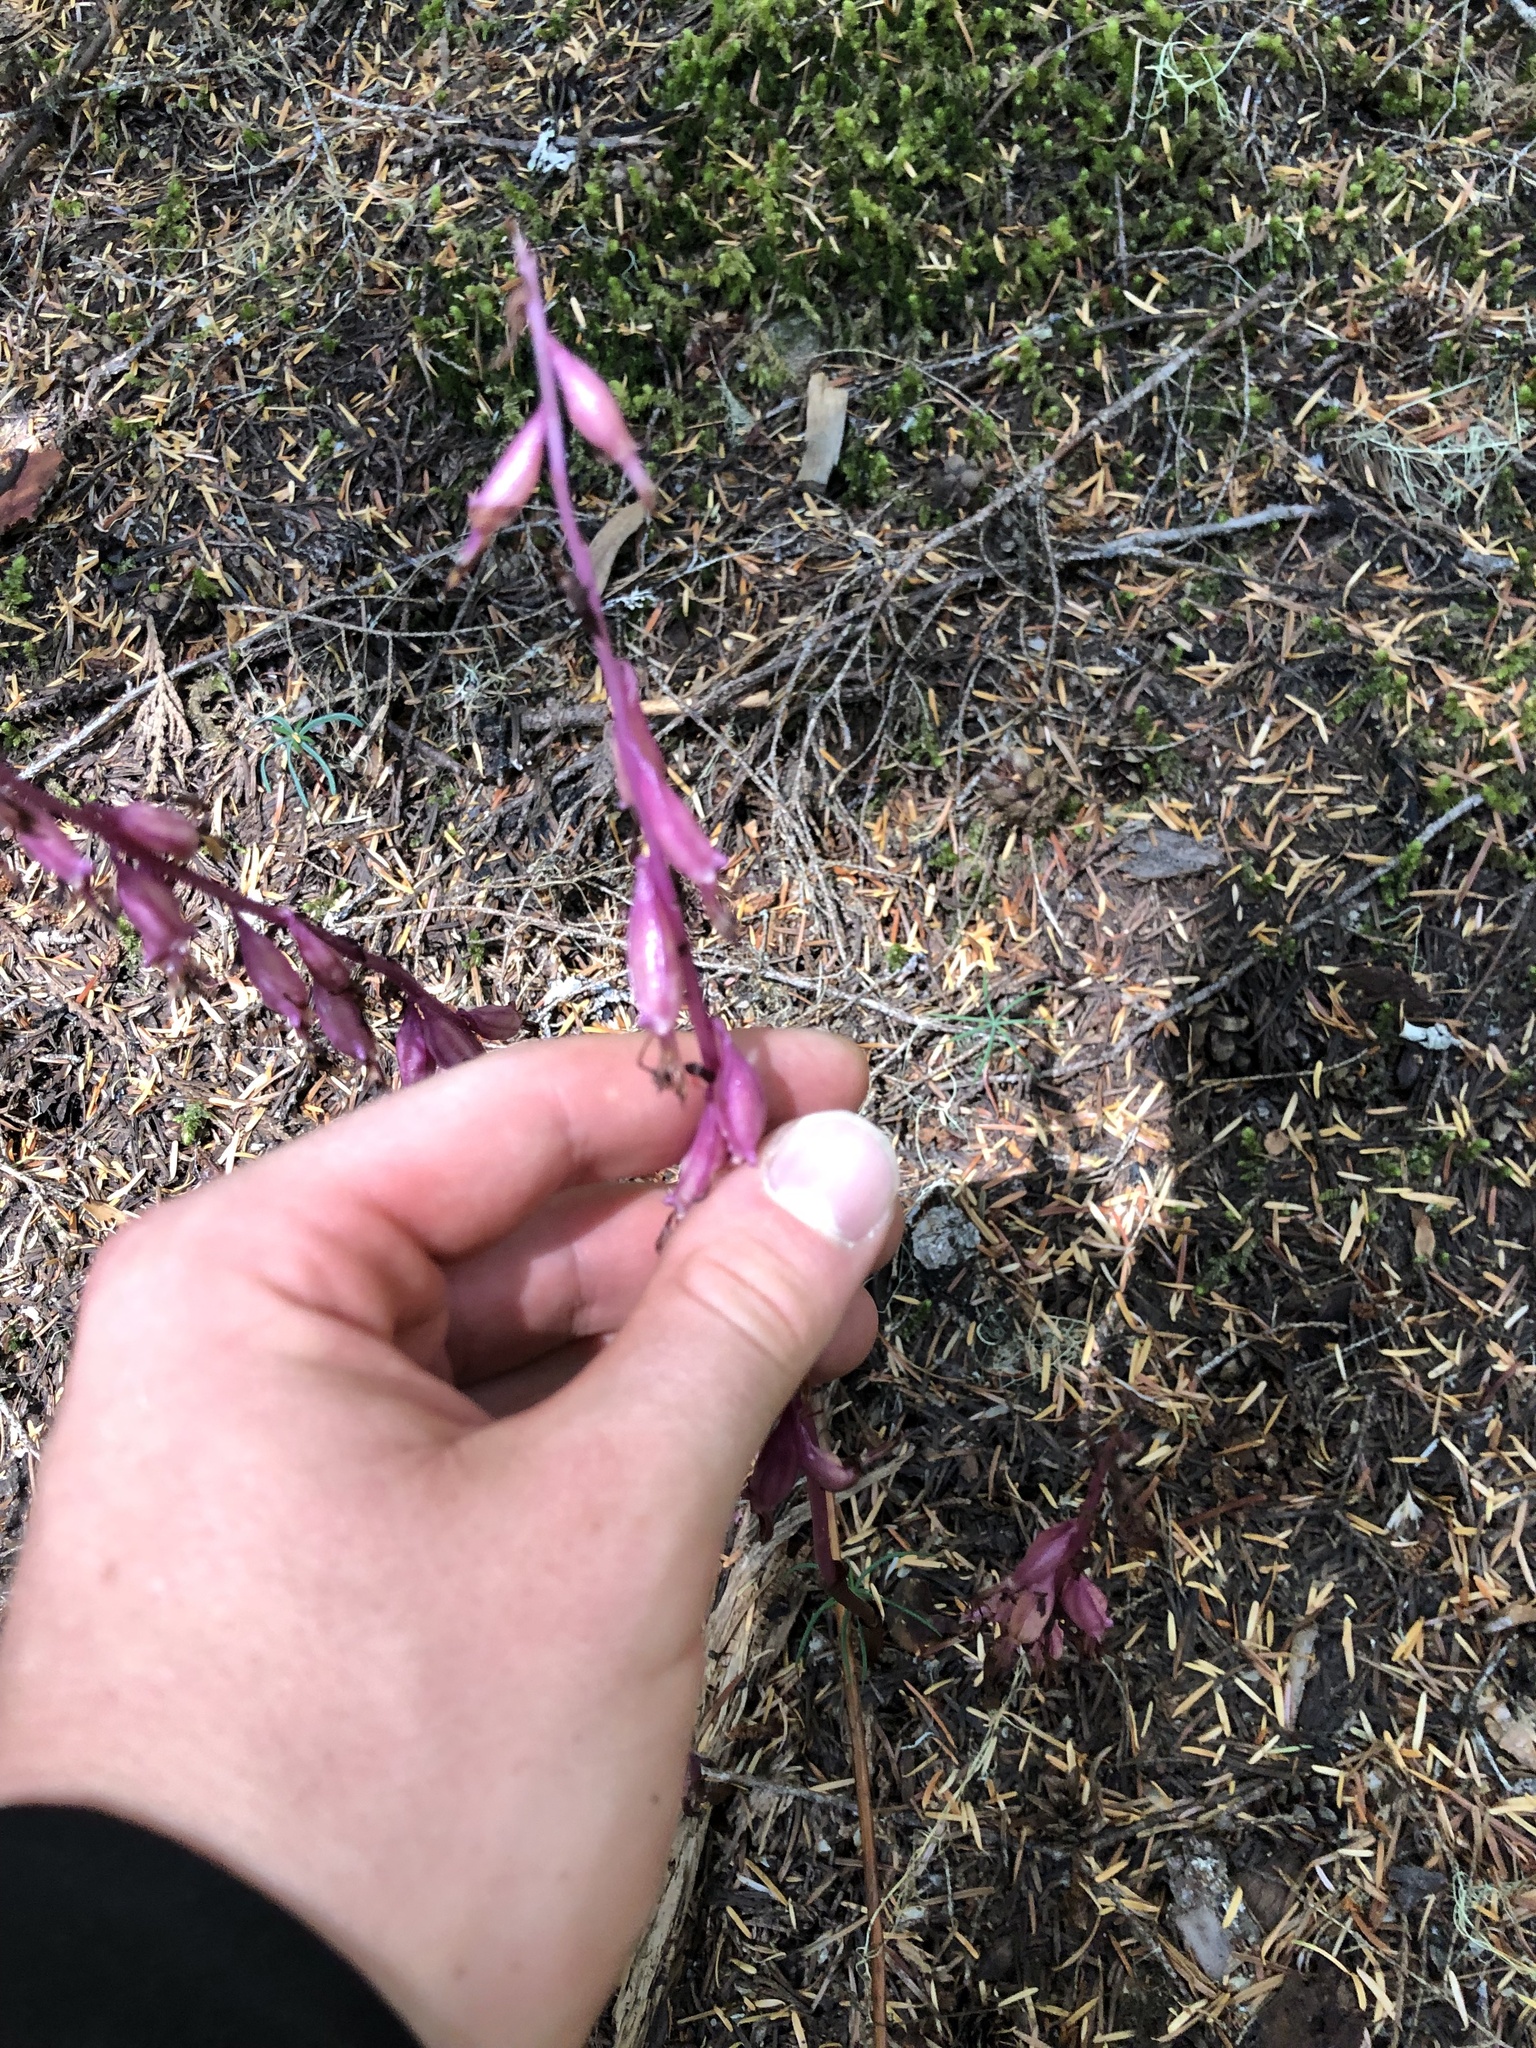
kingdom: Plantae
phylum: Tracheophyta
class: Liliopsida
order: Asparagales
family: Orchidaceae
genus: Corallorhiza
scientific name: Corallorhiza mertensiana
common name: Pacific coralroot
